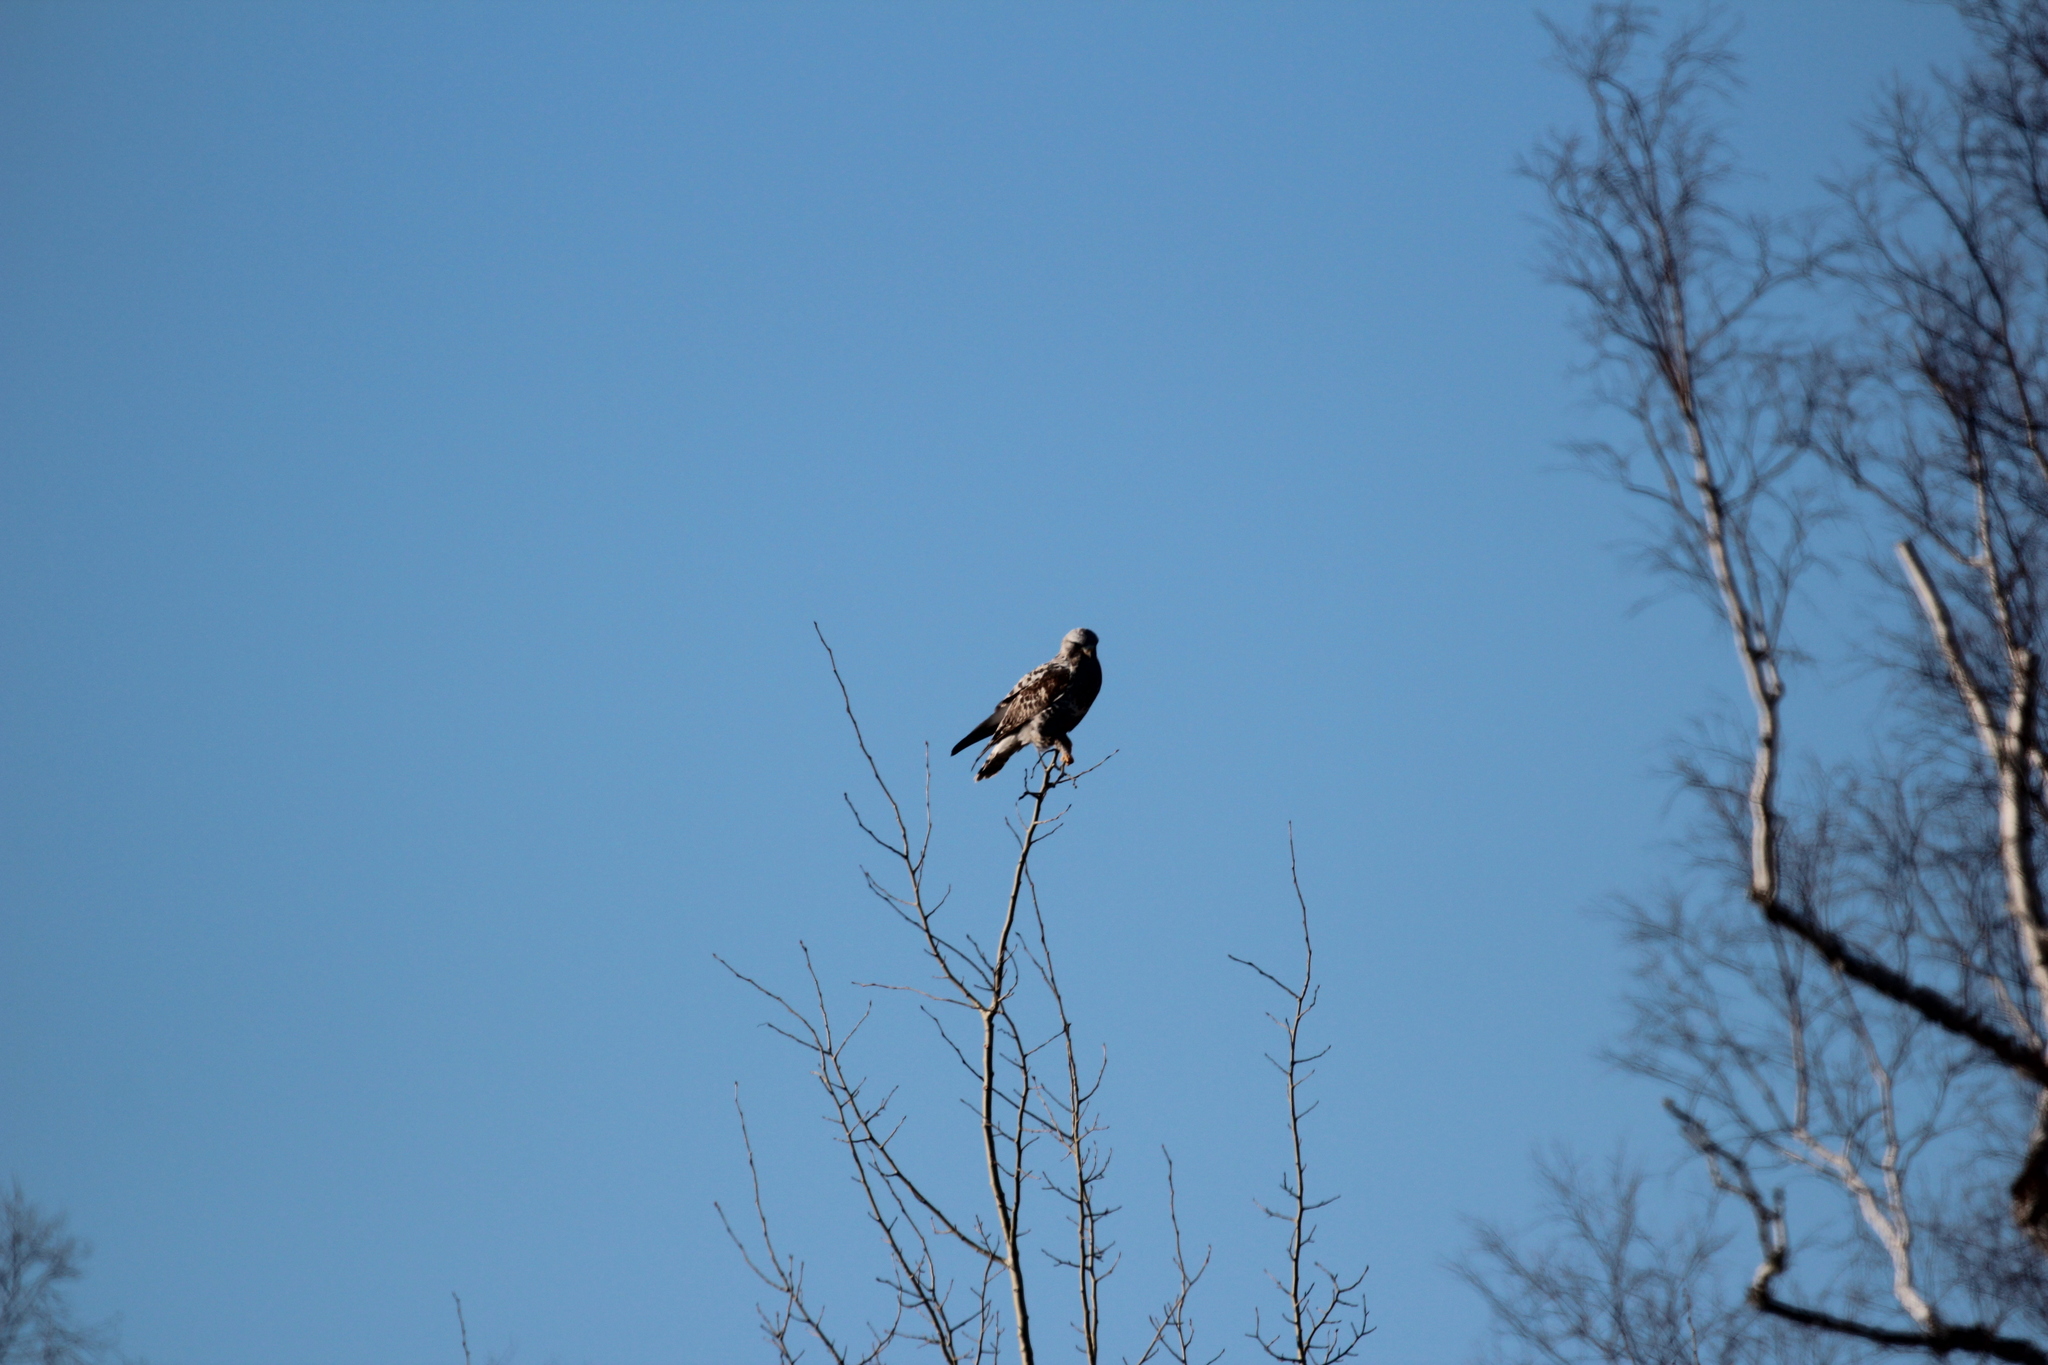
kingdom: Animalia
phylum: Chordata
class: Aves
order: Accipitriformes
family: Accipitridae
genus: Buteo
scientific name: Buteo lagopus
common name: Rough-legged buzzard
